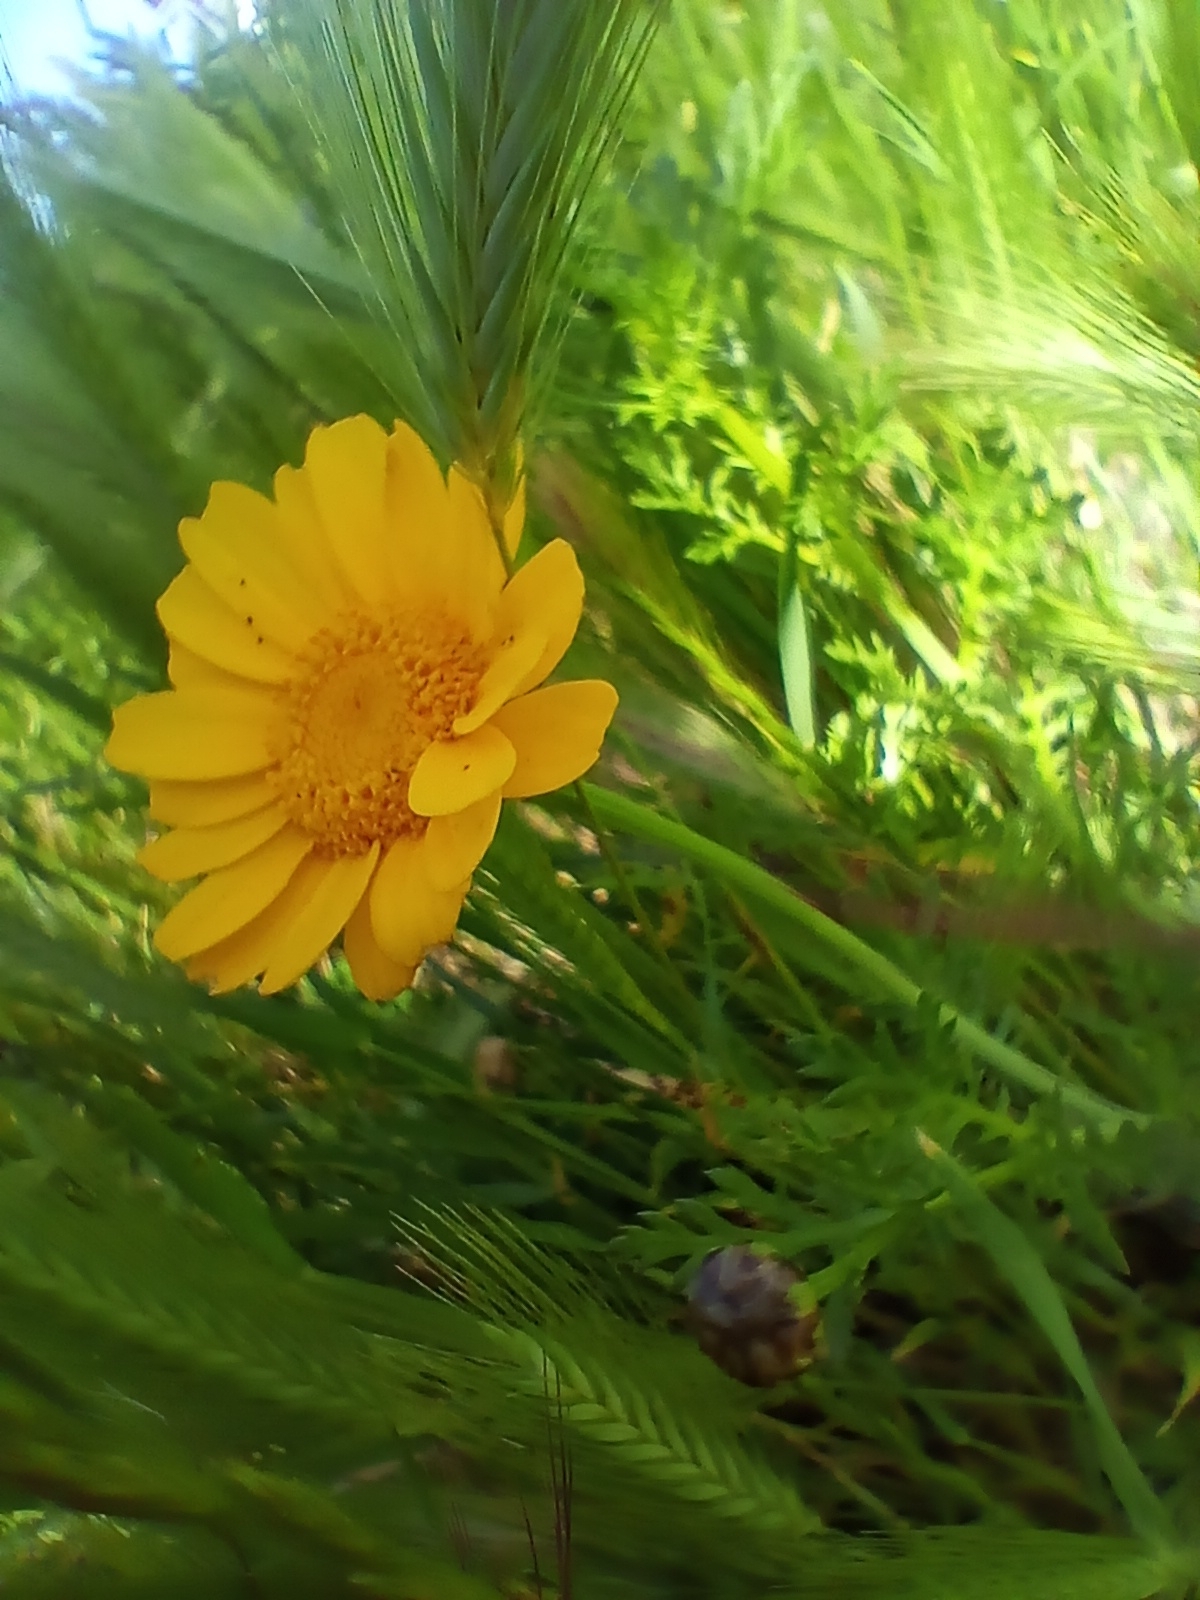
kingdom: Plantae
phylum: Tracheophyta
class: Magnoliopsida
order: Asterales
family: Asteraceae
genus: Glebionis
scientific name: Glebionis coronaria
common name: Crowndaisy
